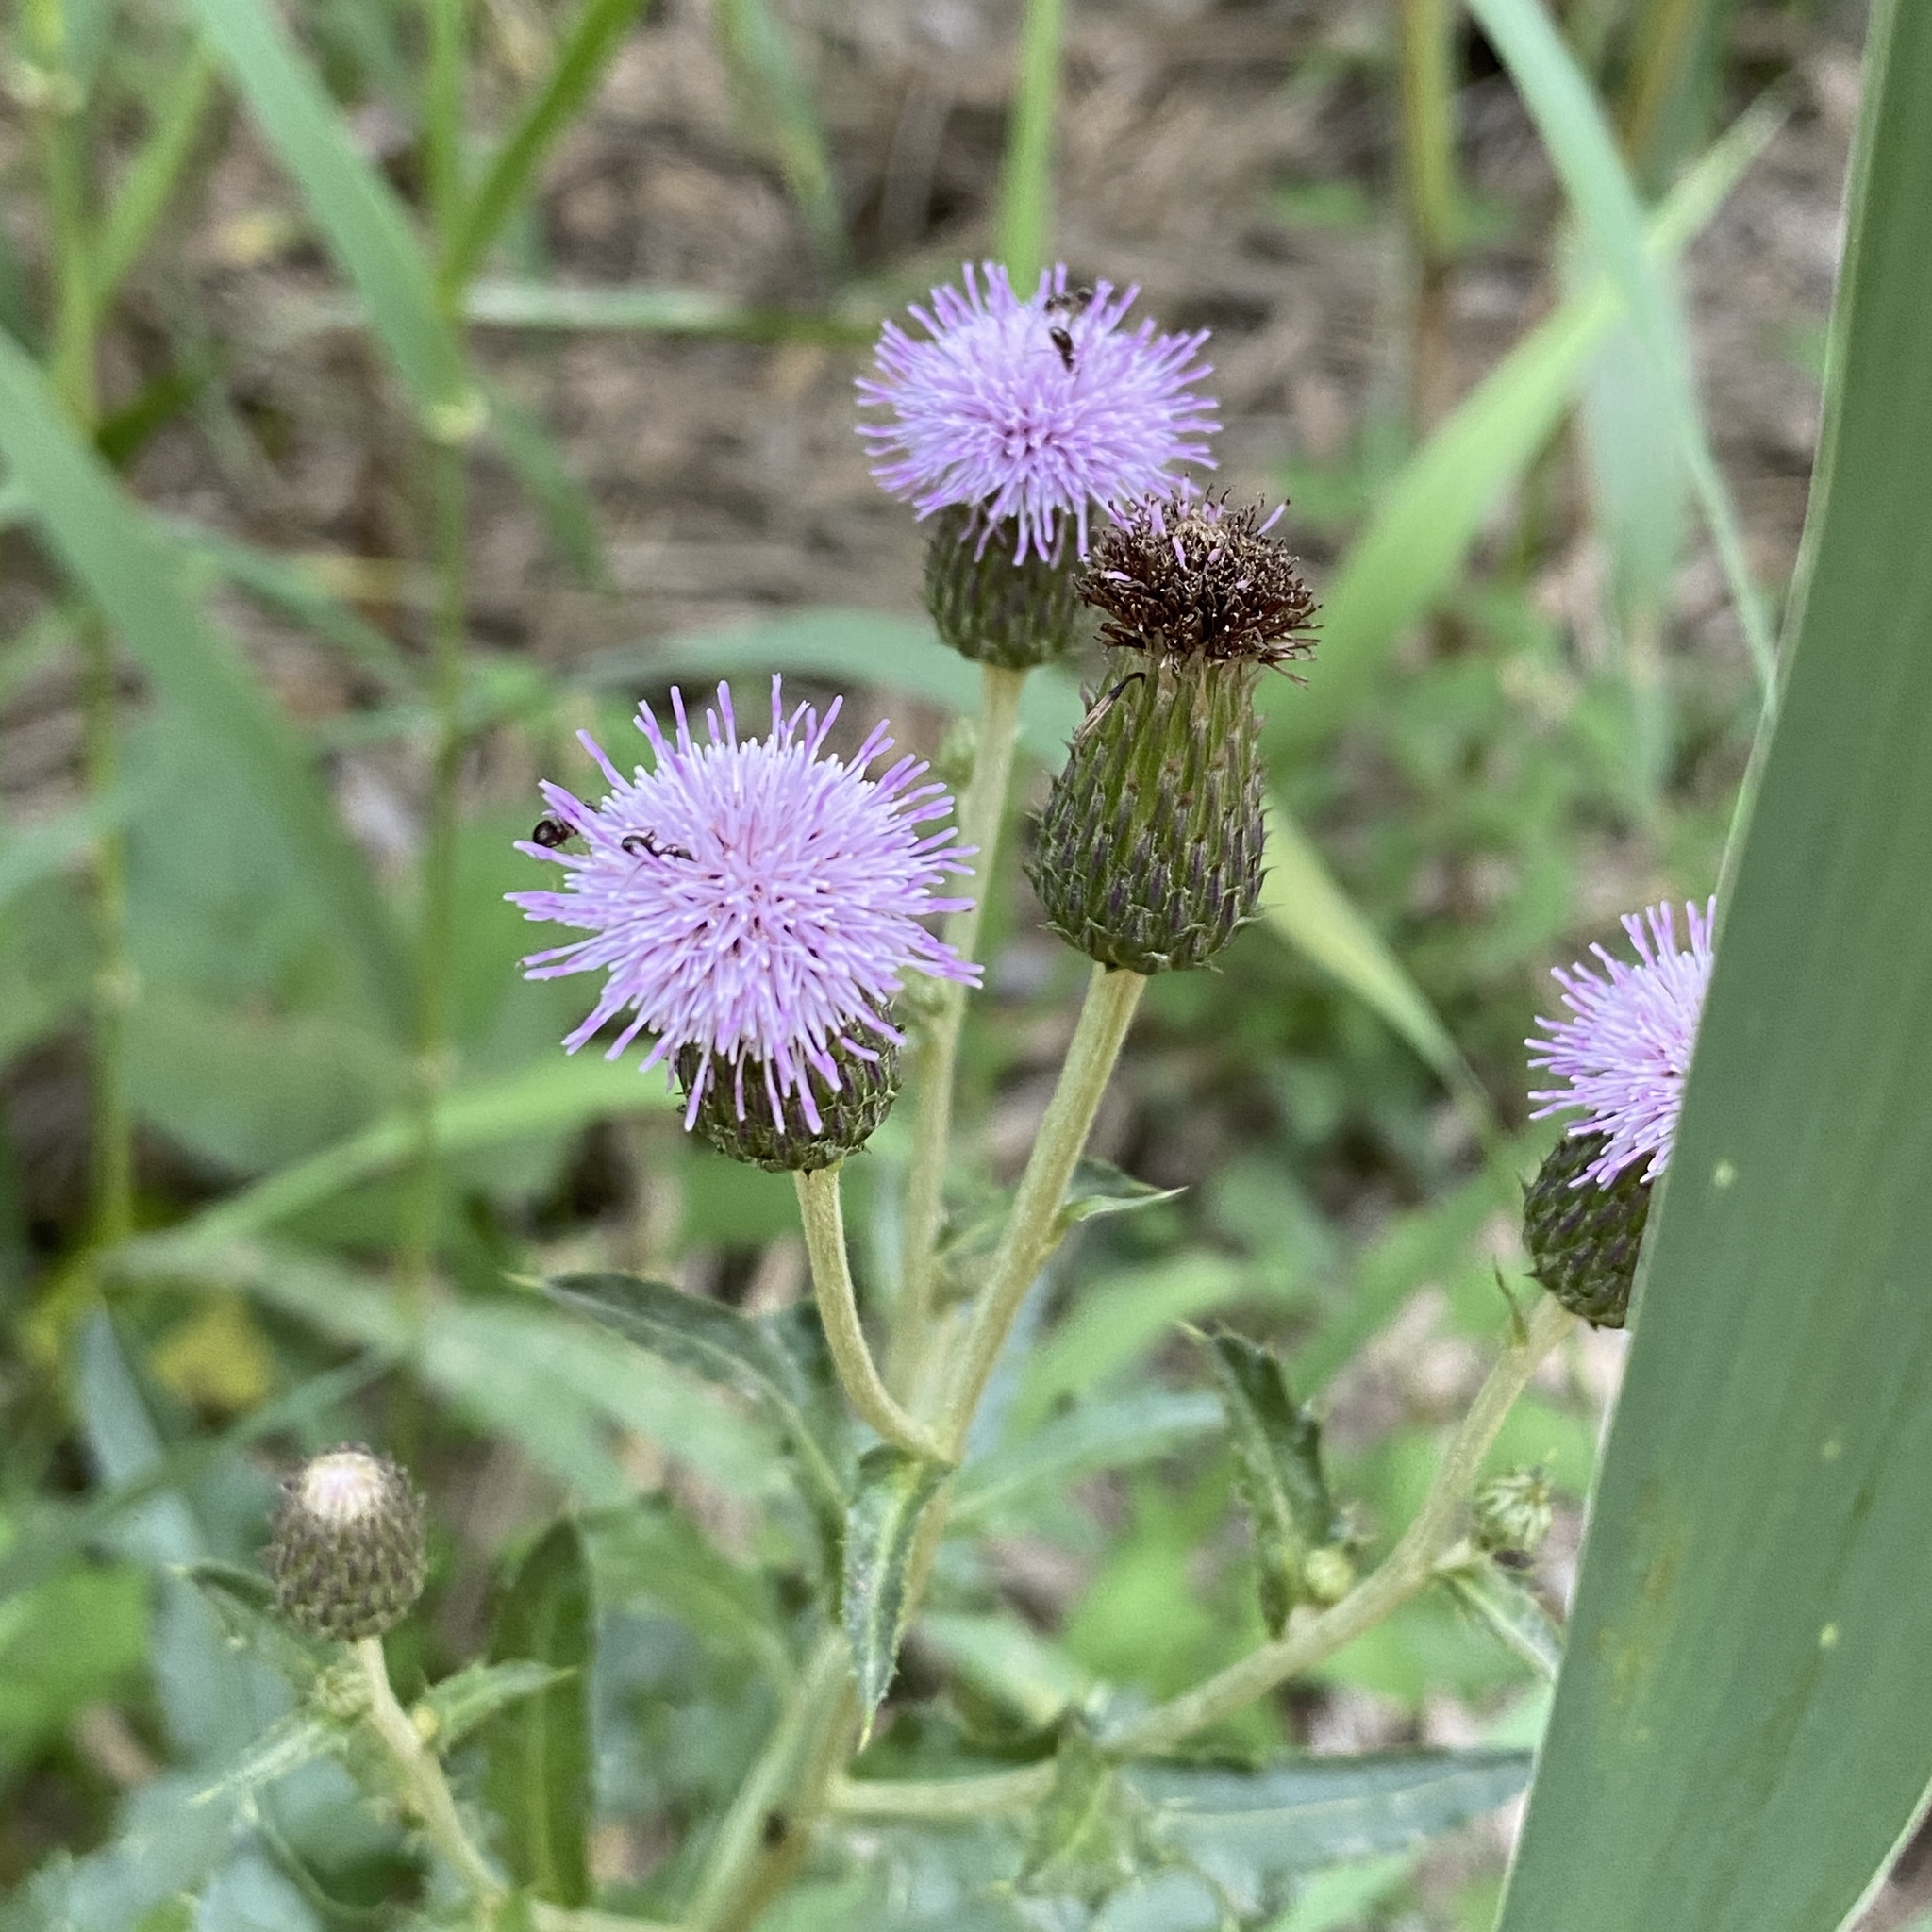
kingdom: Plantae
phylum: Tracheophyta
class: Magnoliopsida
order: Asterales
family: Asteraceae
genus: Cirsium
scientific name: Cirsium arvense
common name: Creeping thistle
